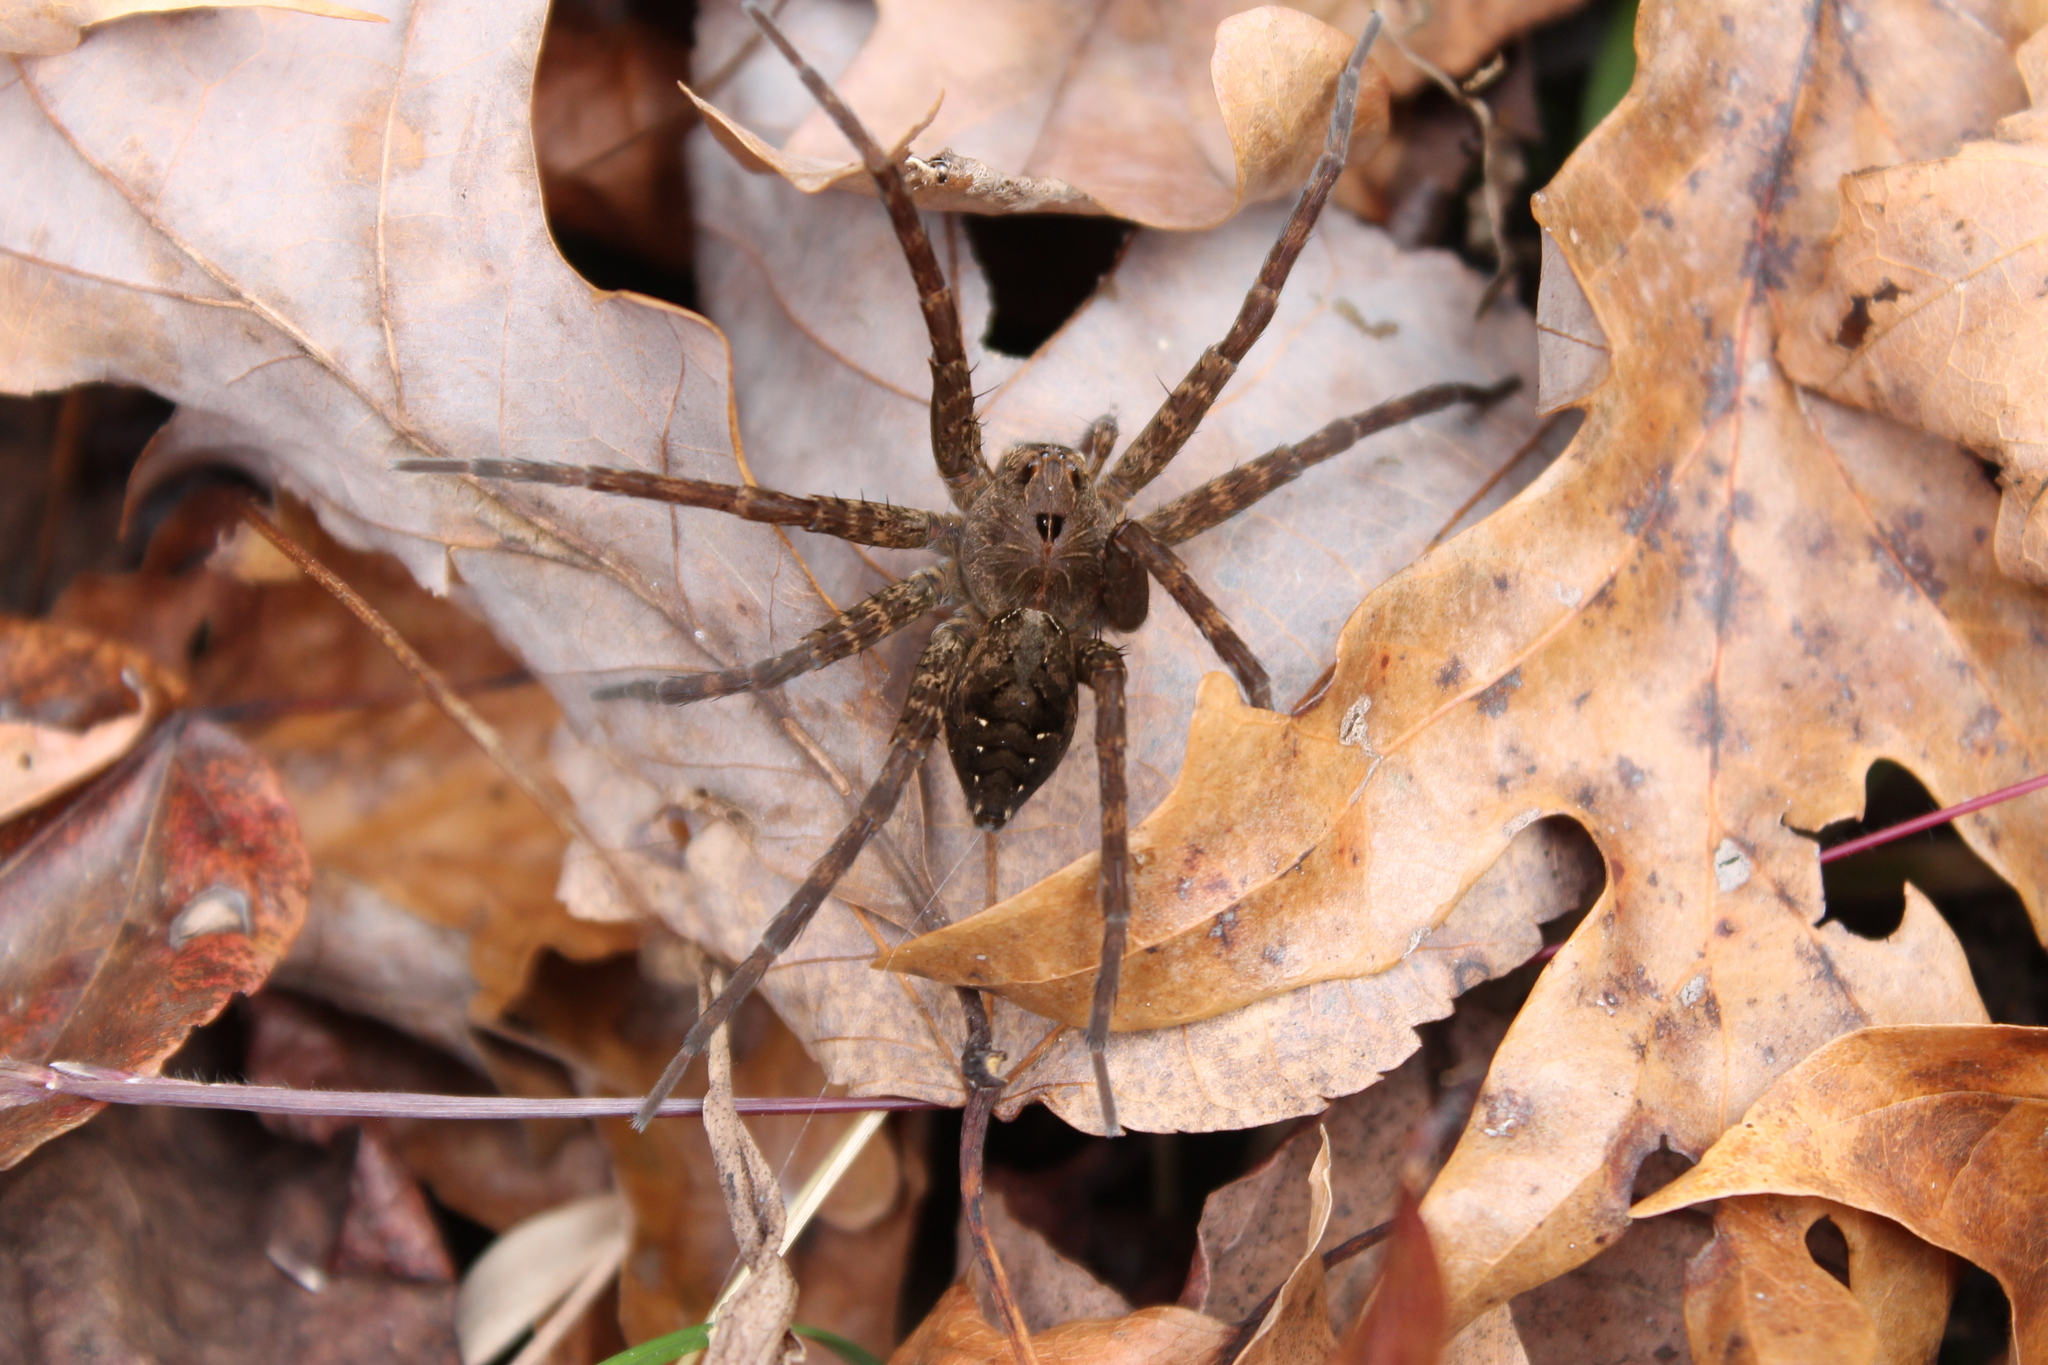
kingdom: Animalia
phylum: Arthropoda
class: Arachnida
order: Araneae
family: Pisauridae
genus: Dolomedes
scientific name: Dolomedes vittatus
